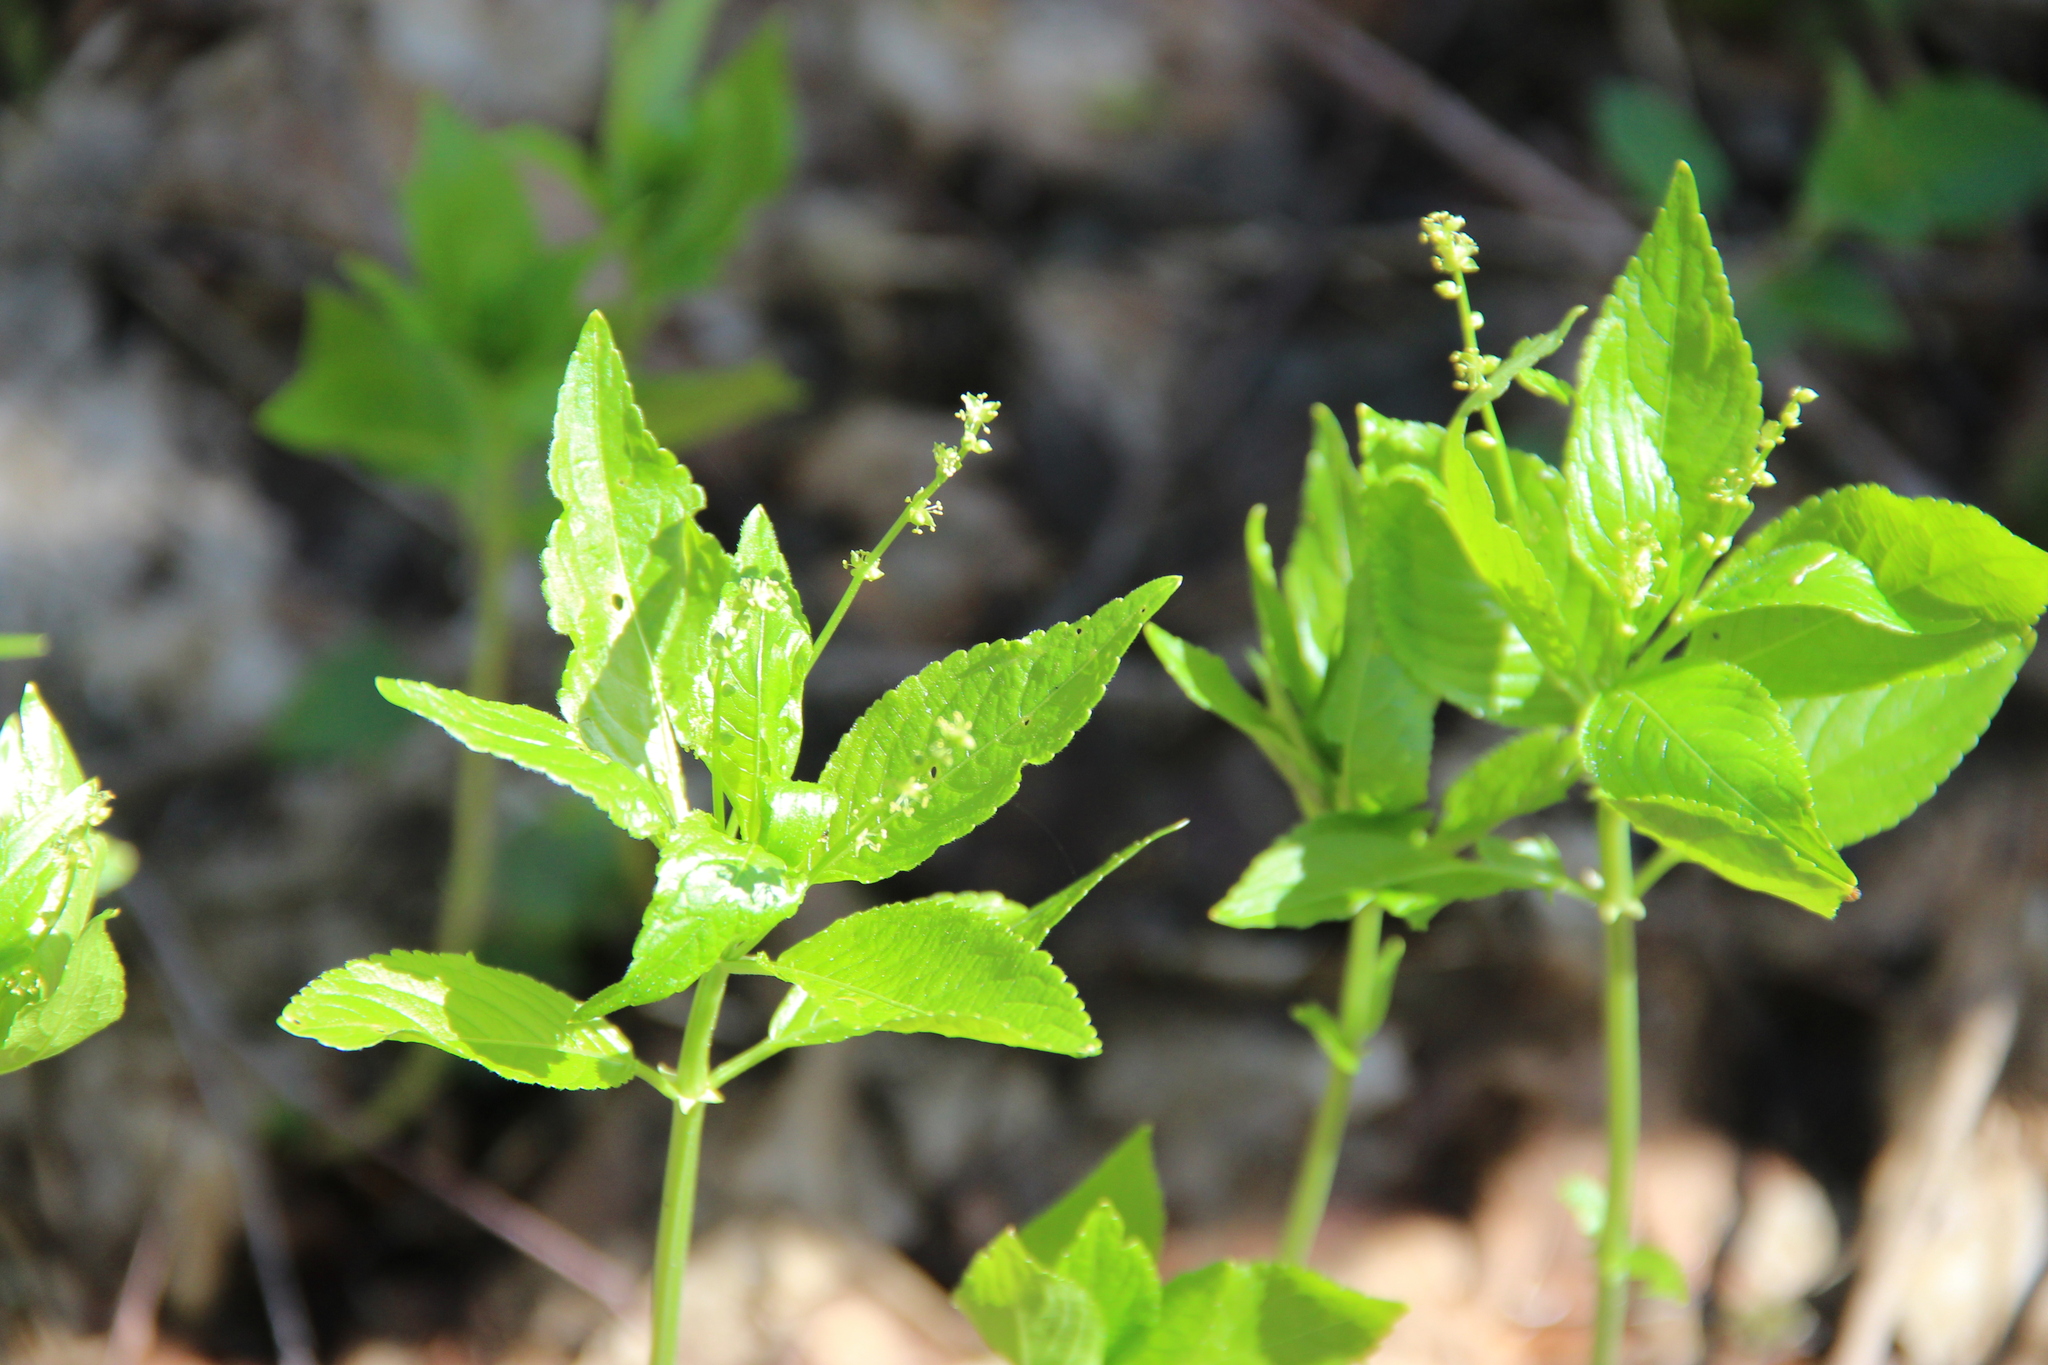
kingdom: Plantae
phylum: Tracheophyta
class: Magnoliopsida
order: Malpighiales
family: Euphorbiaceae
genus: Mercurialis
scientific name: Mercurialis perennis
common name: Dog mercury
